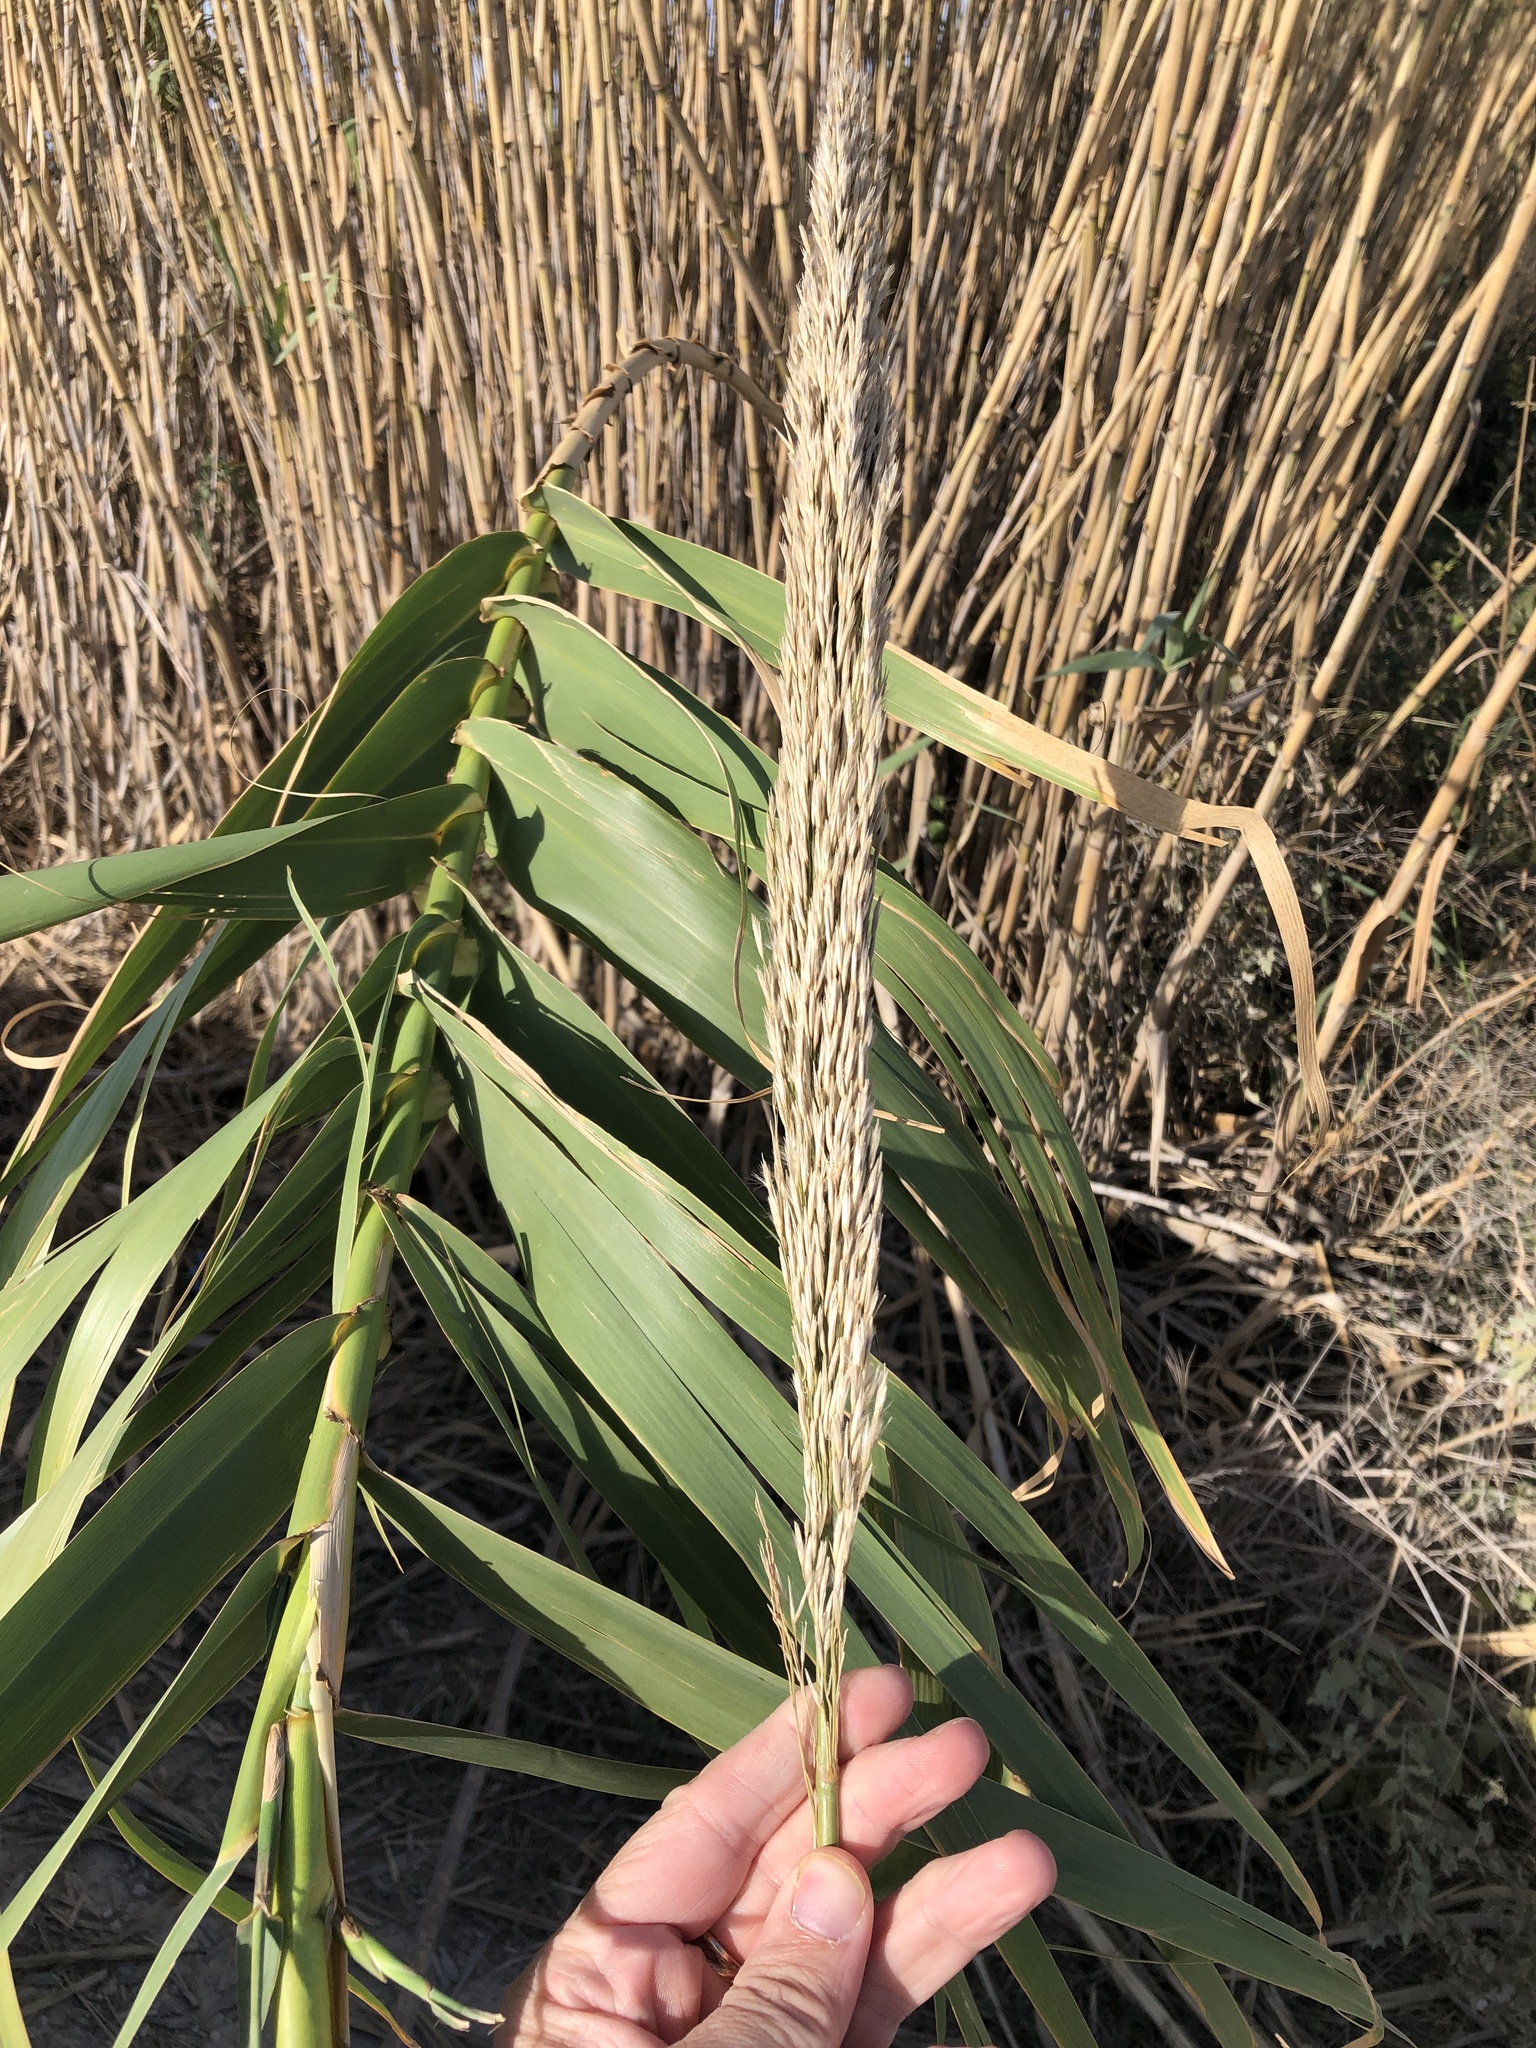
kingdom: Plantae
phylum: Tracheophyta
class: Liliopsida
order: Poales
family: Poaceae
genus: Arundo
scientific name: Arundo donax
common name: Giant reed
